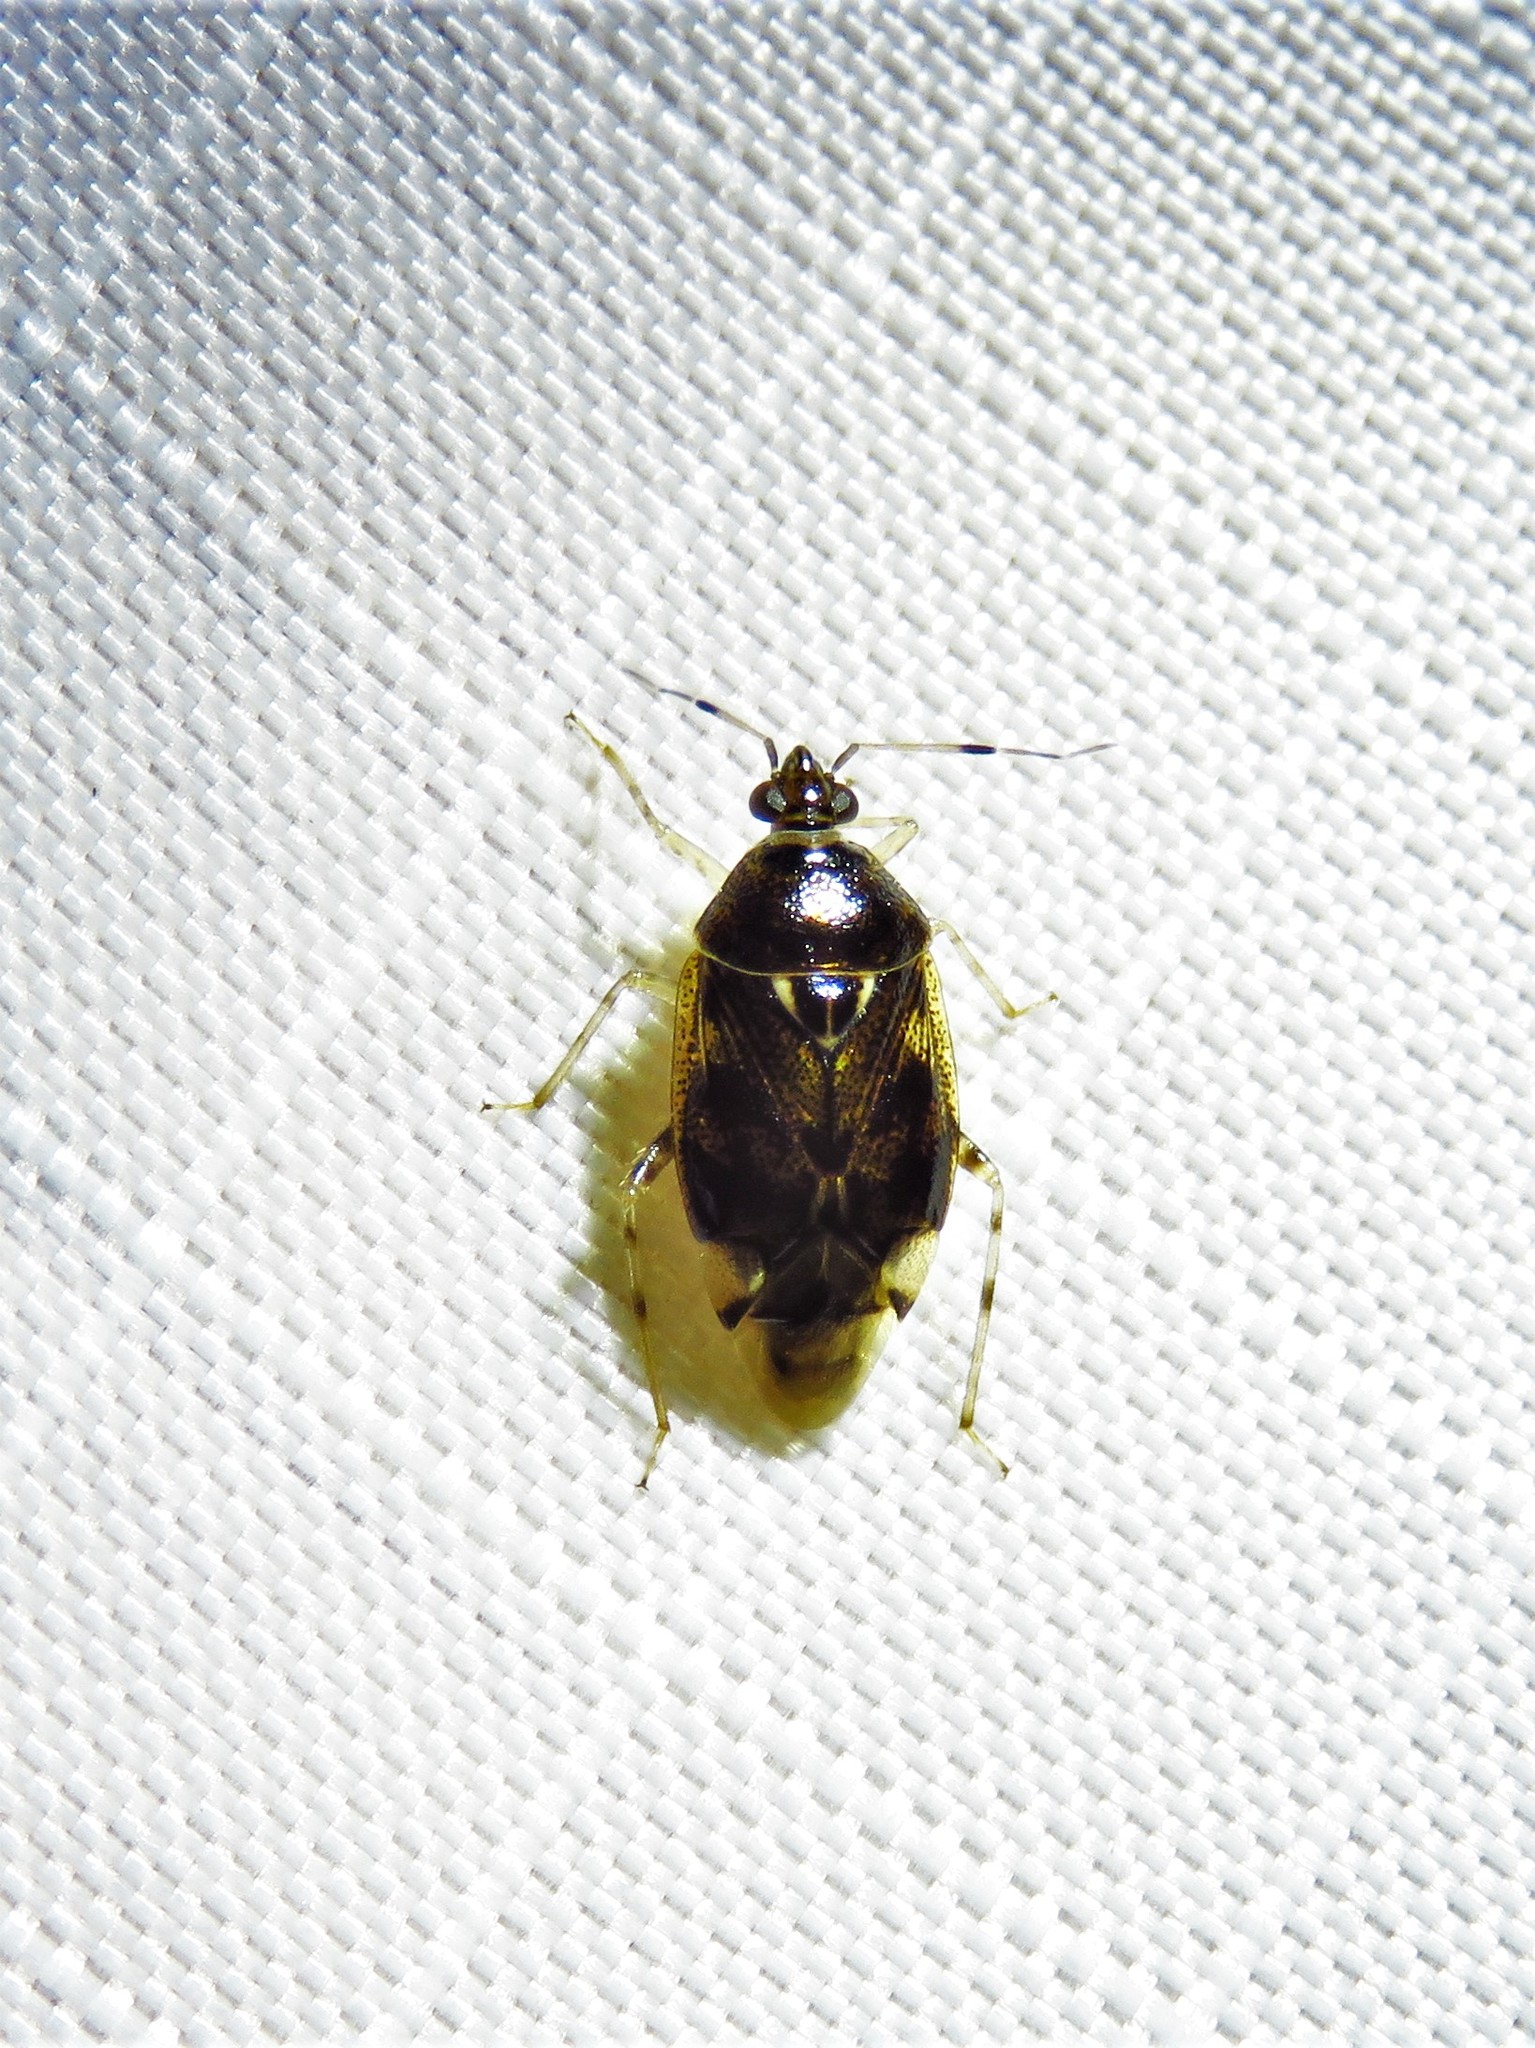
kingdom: Animalia
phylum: Arthropoda
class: Insecta
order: Hemiptera
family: Miridae
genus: Deraeocoris
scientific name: Deraeocoris nebulosus
